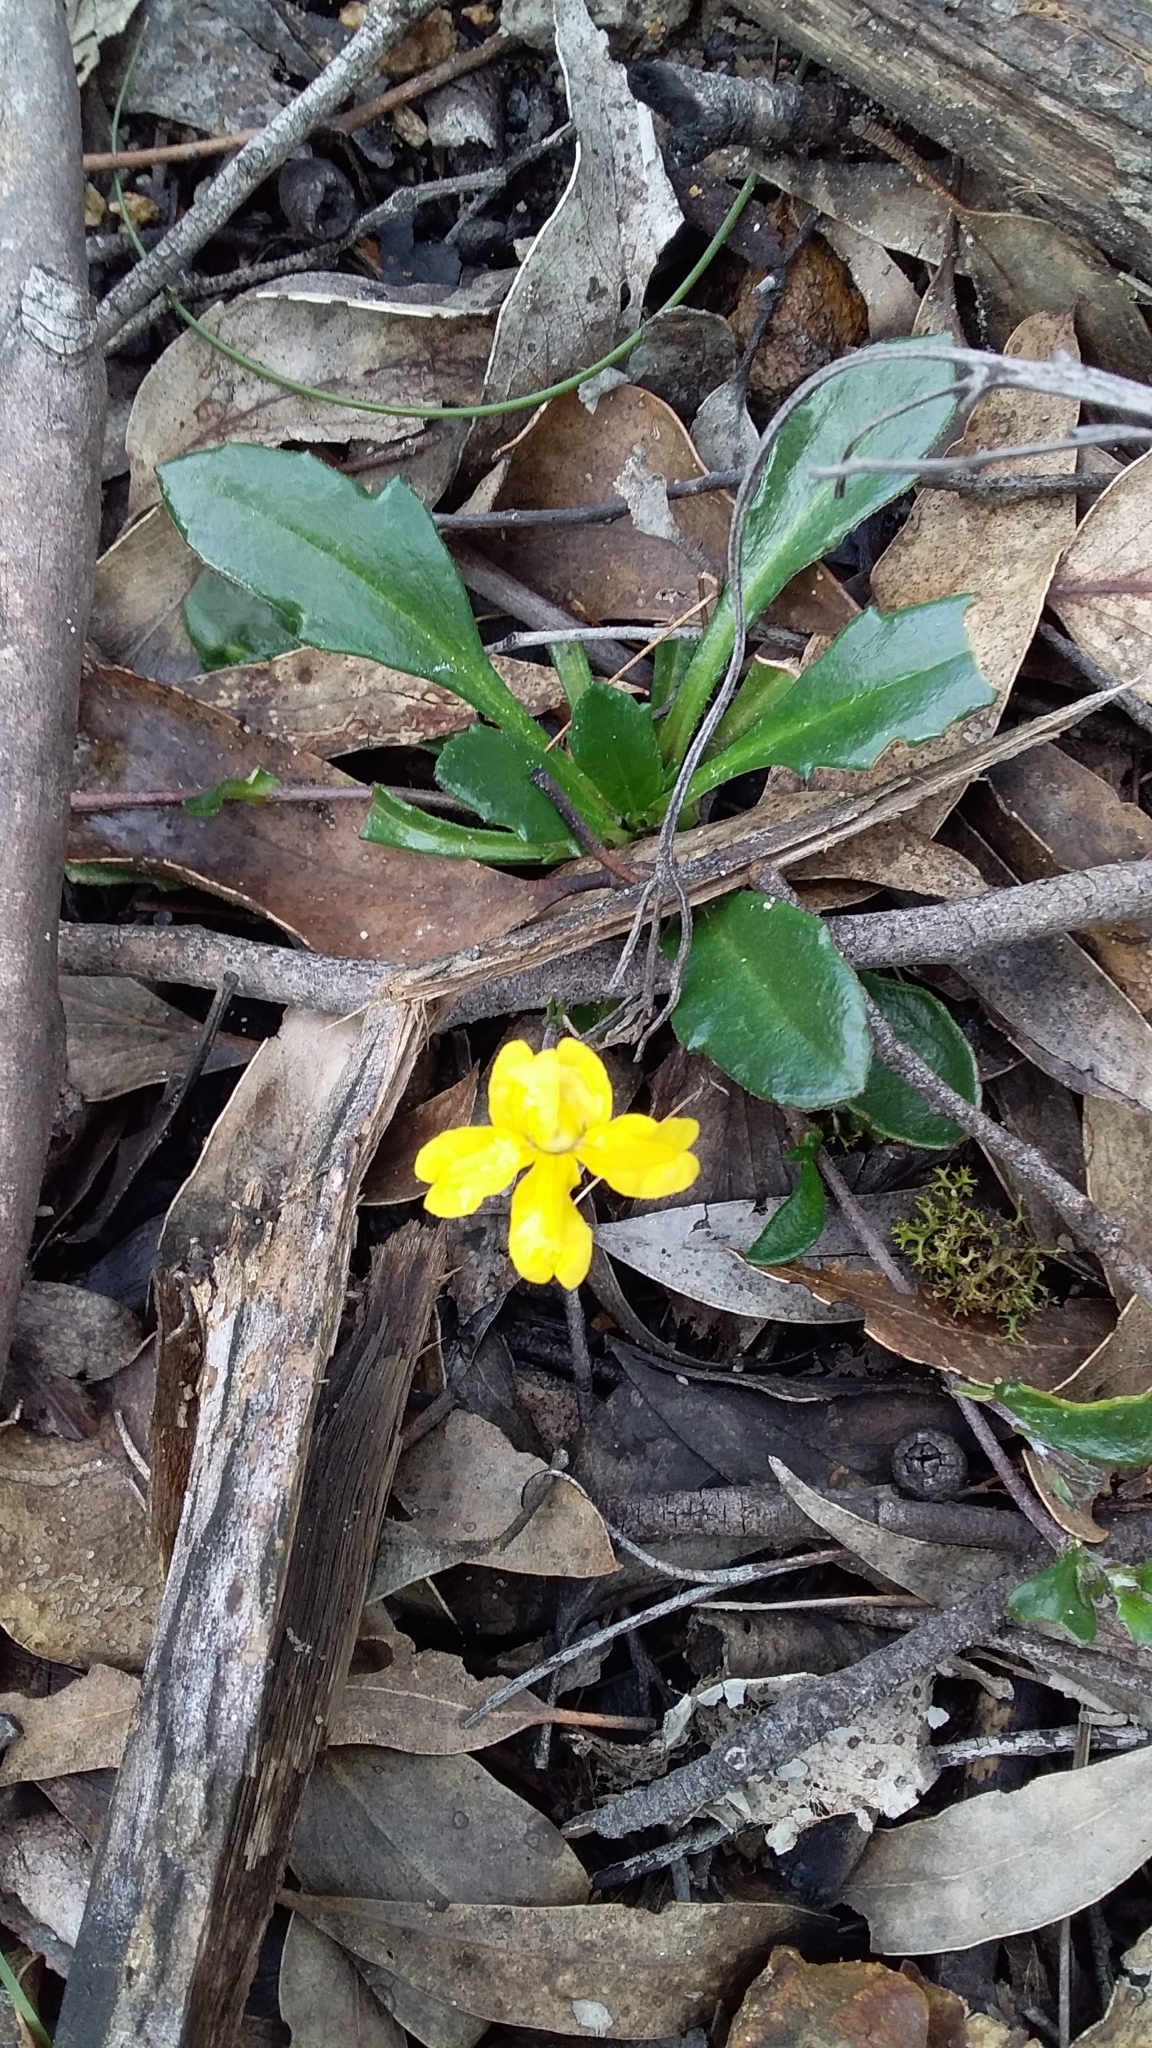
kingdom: Plantae
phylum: Tracheophyta
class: Magnoliopsida
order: Asterales
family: Goodeniaceae
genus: Goodenia
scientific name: Goodenia blackiana
